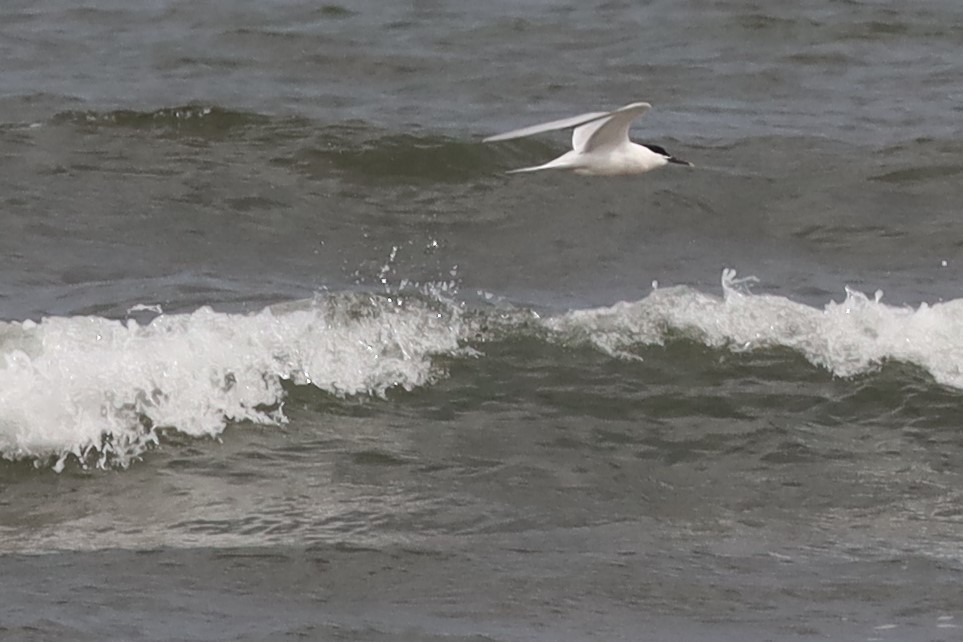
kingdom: Animalia
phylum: Chordata
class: Aves
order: Charadriiformes
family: Laridae
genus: Thalasseus
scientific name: Thalasseus sandvicensis
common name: Sandwich tern
